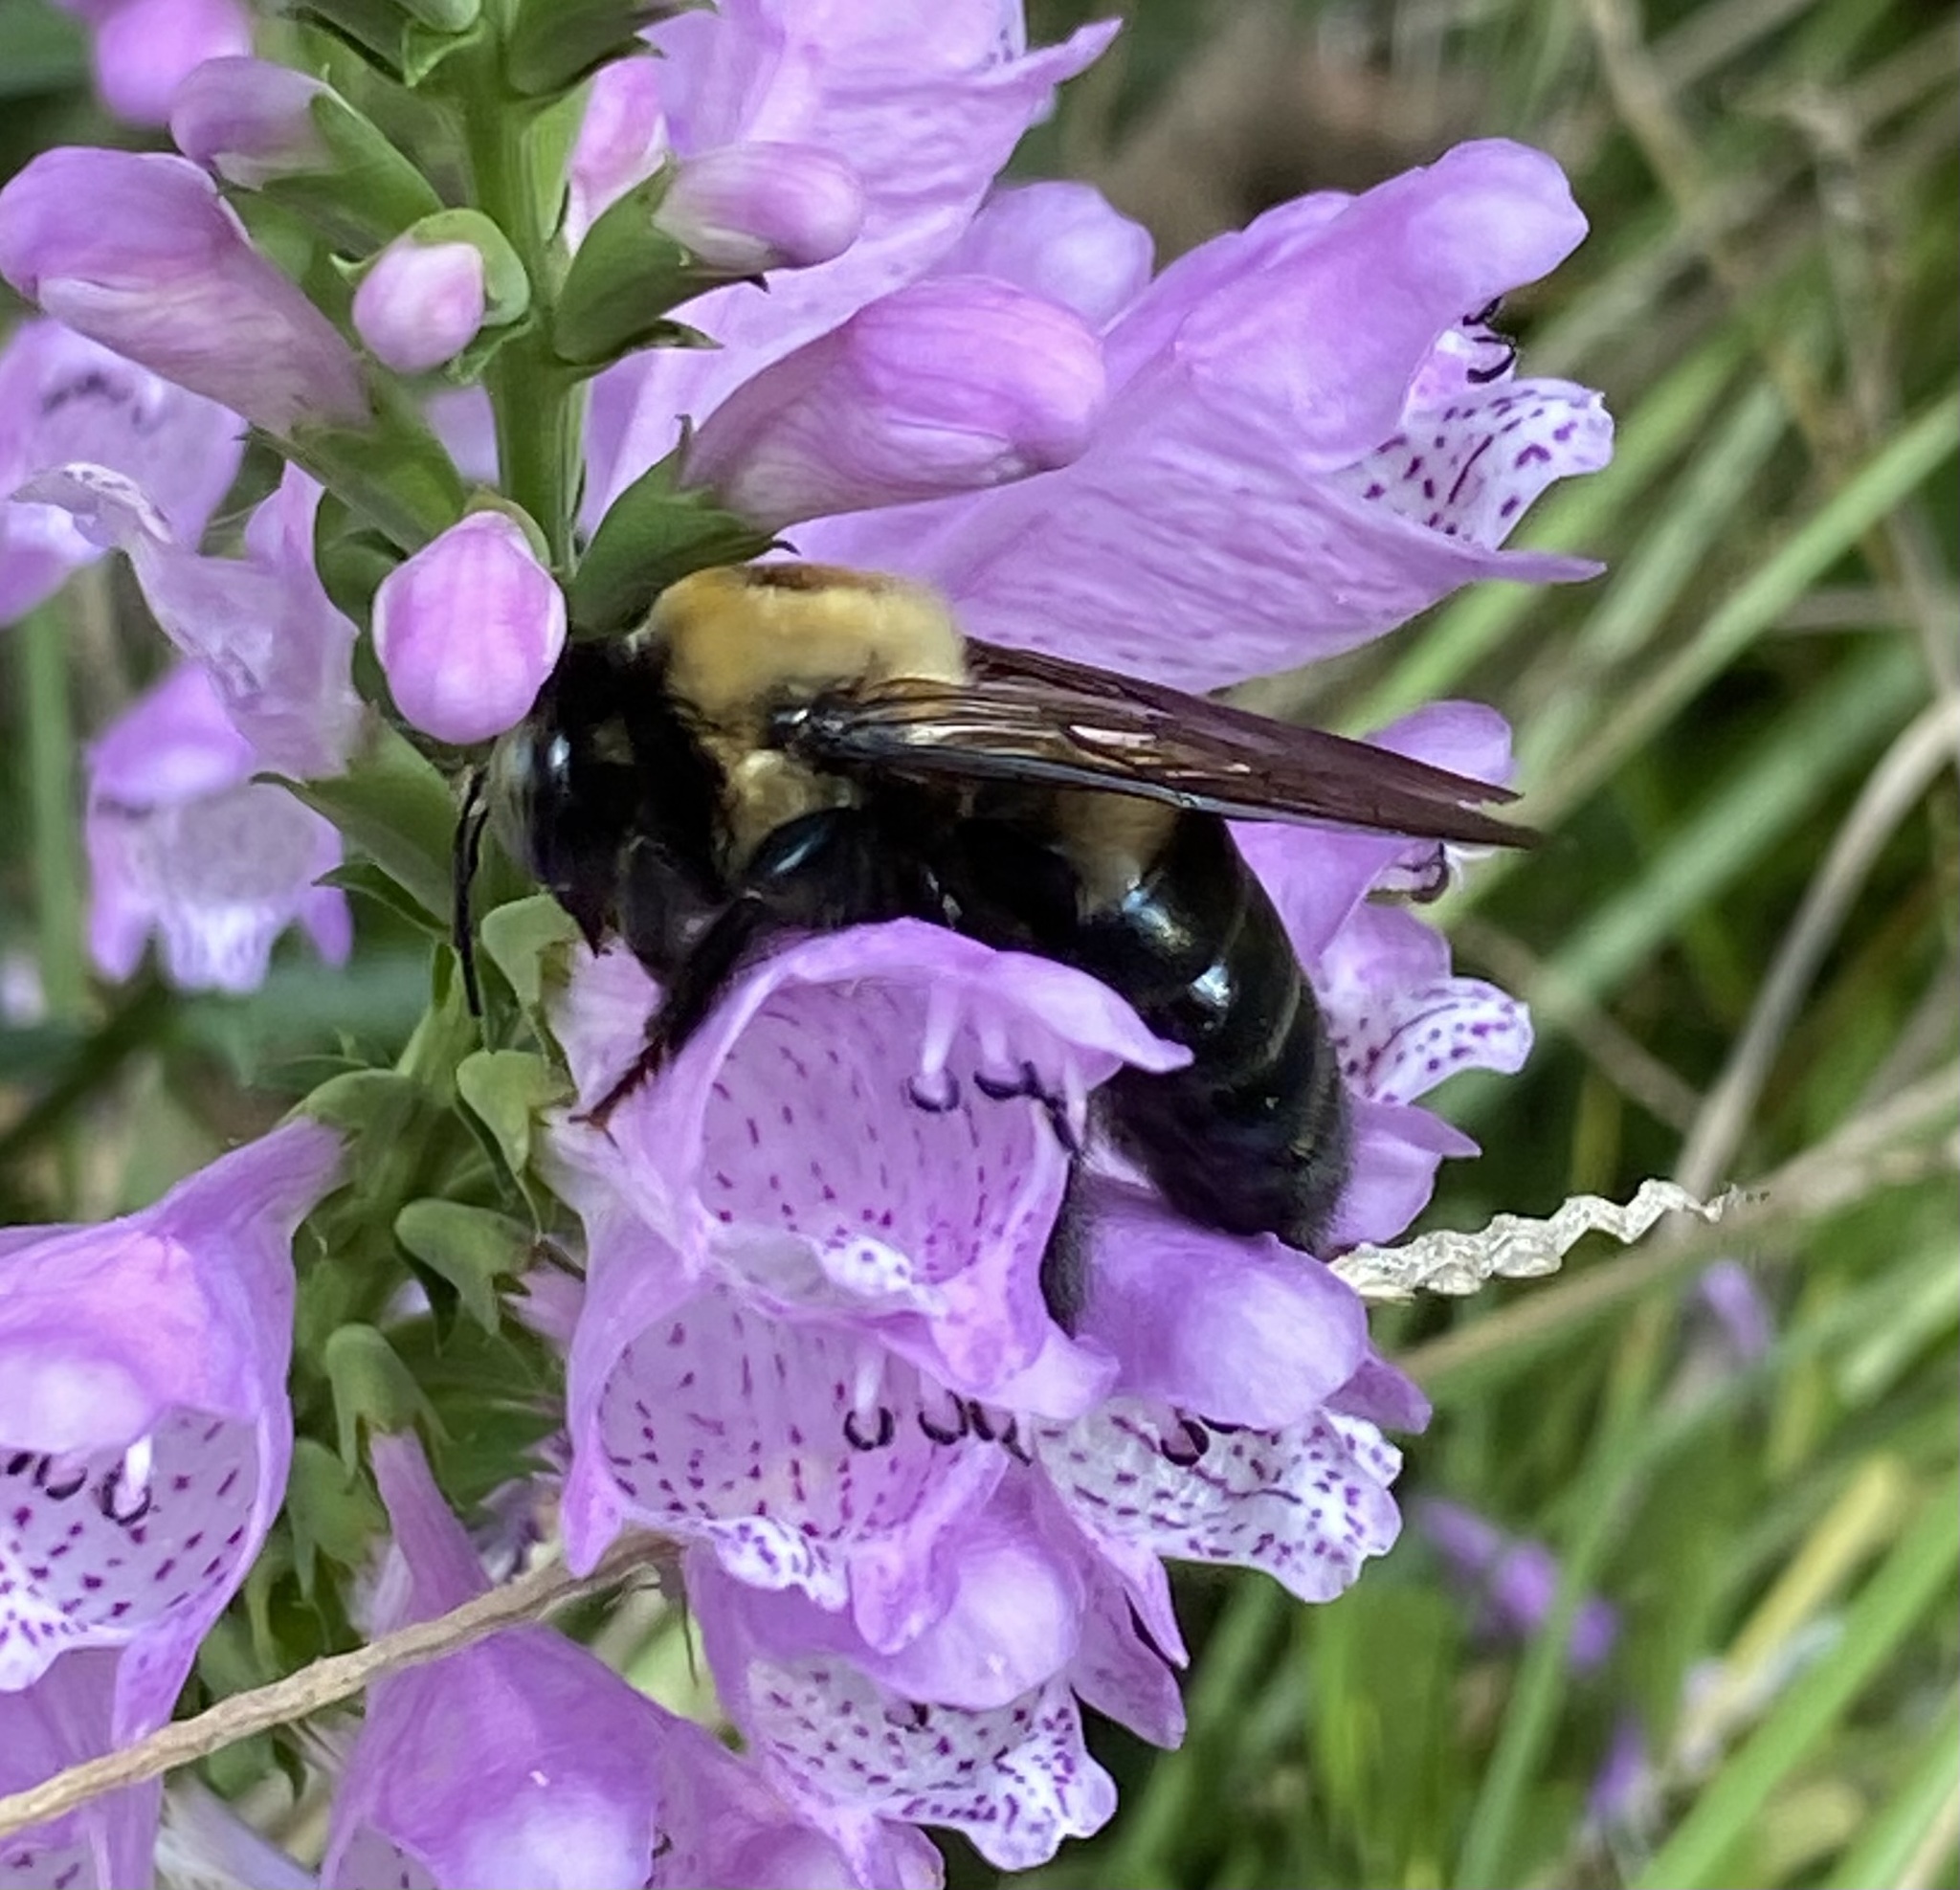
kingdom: Animalia
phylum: Arthropoda
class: Insecta
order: Hymenoptera
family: Apidae
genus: Xylocopa
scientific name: Xylocopa virginica
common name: Carpenter bee
